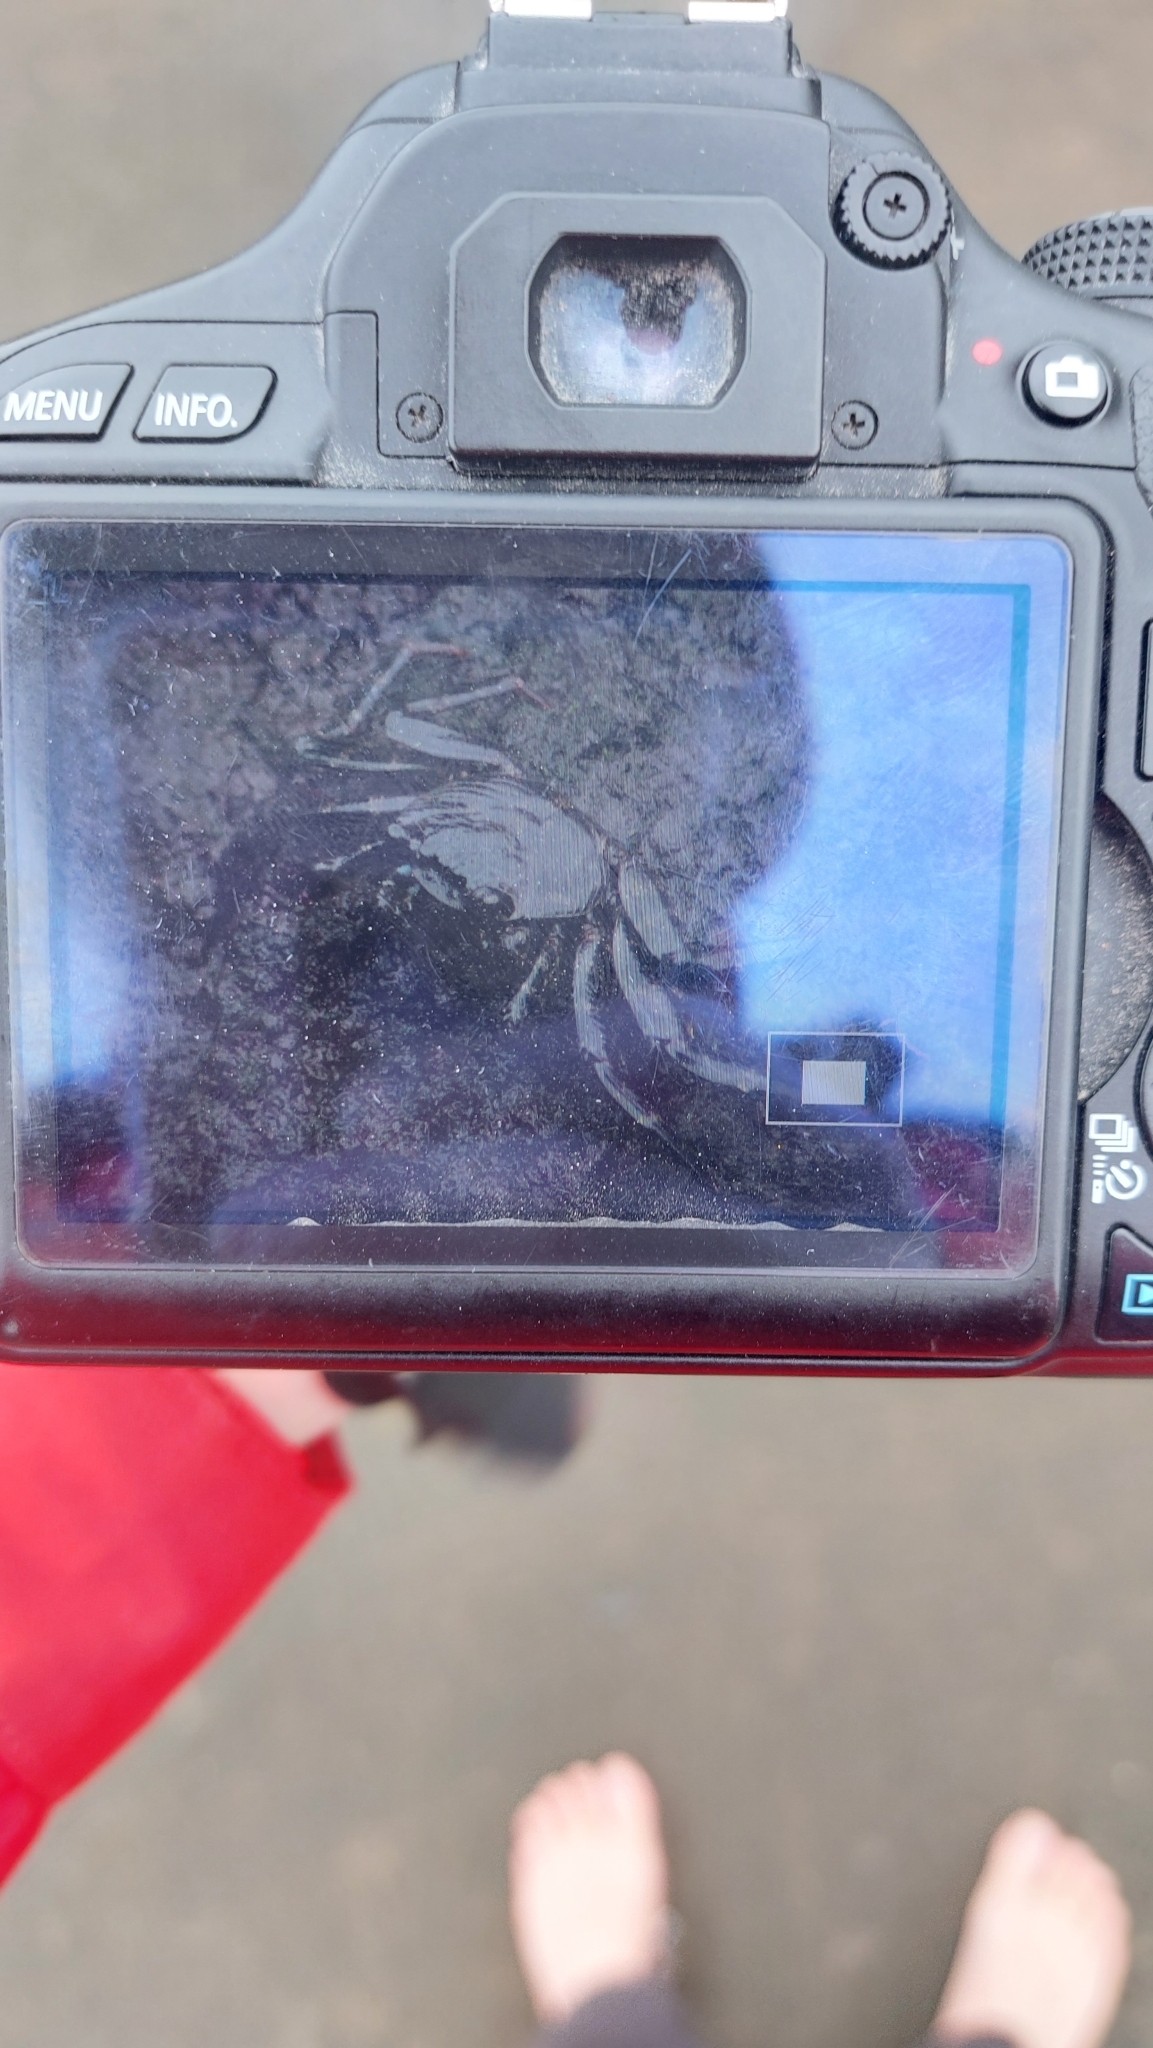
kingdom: Animalia
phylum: Arthropoda
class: Malacostraca
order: Decapoda
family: Grapsidae
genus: Grapsus
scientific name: Grapsus adscensionis
